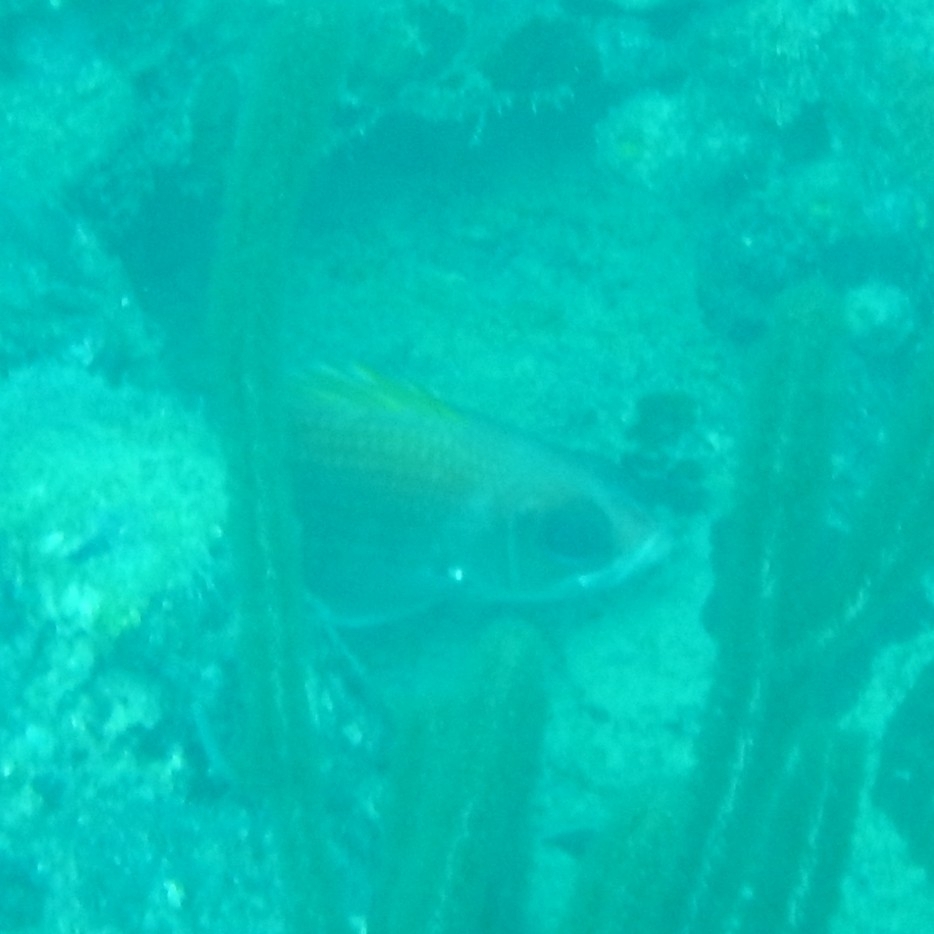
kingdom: Animalia
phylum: Chordata
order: Beryciformes
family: Holocentridae
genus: Holocentrus
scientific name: Holocentrus
